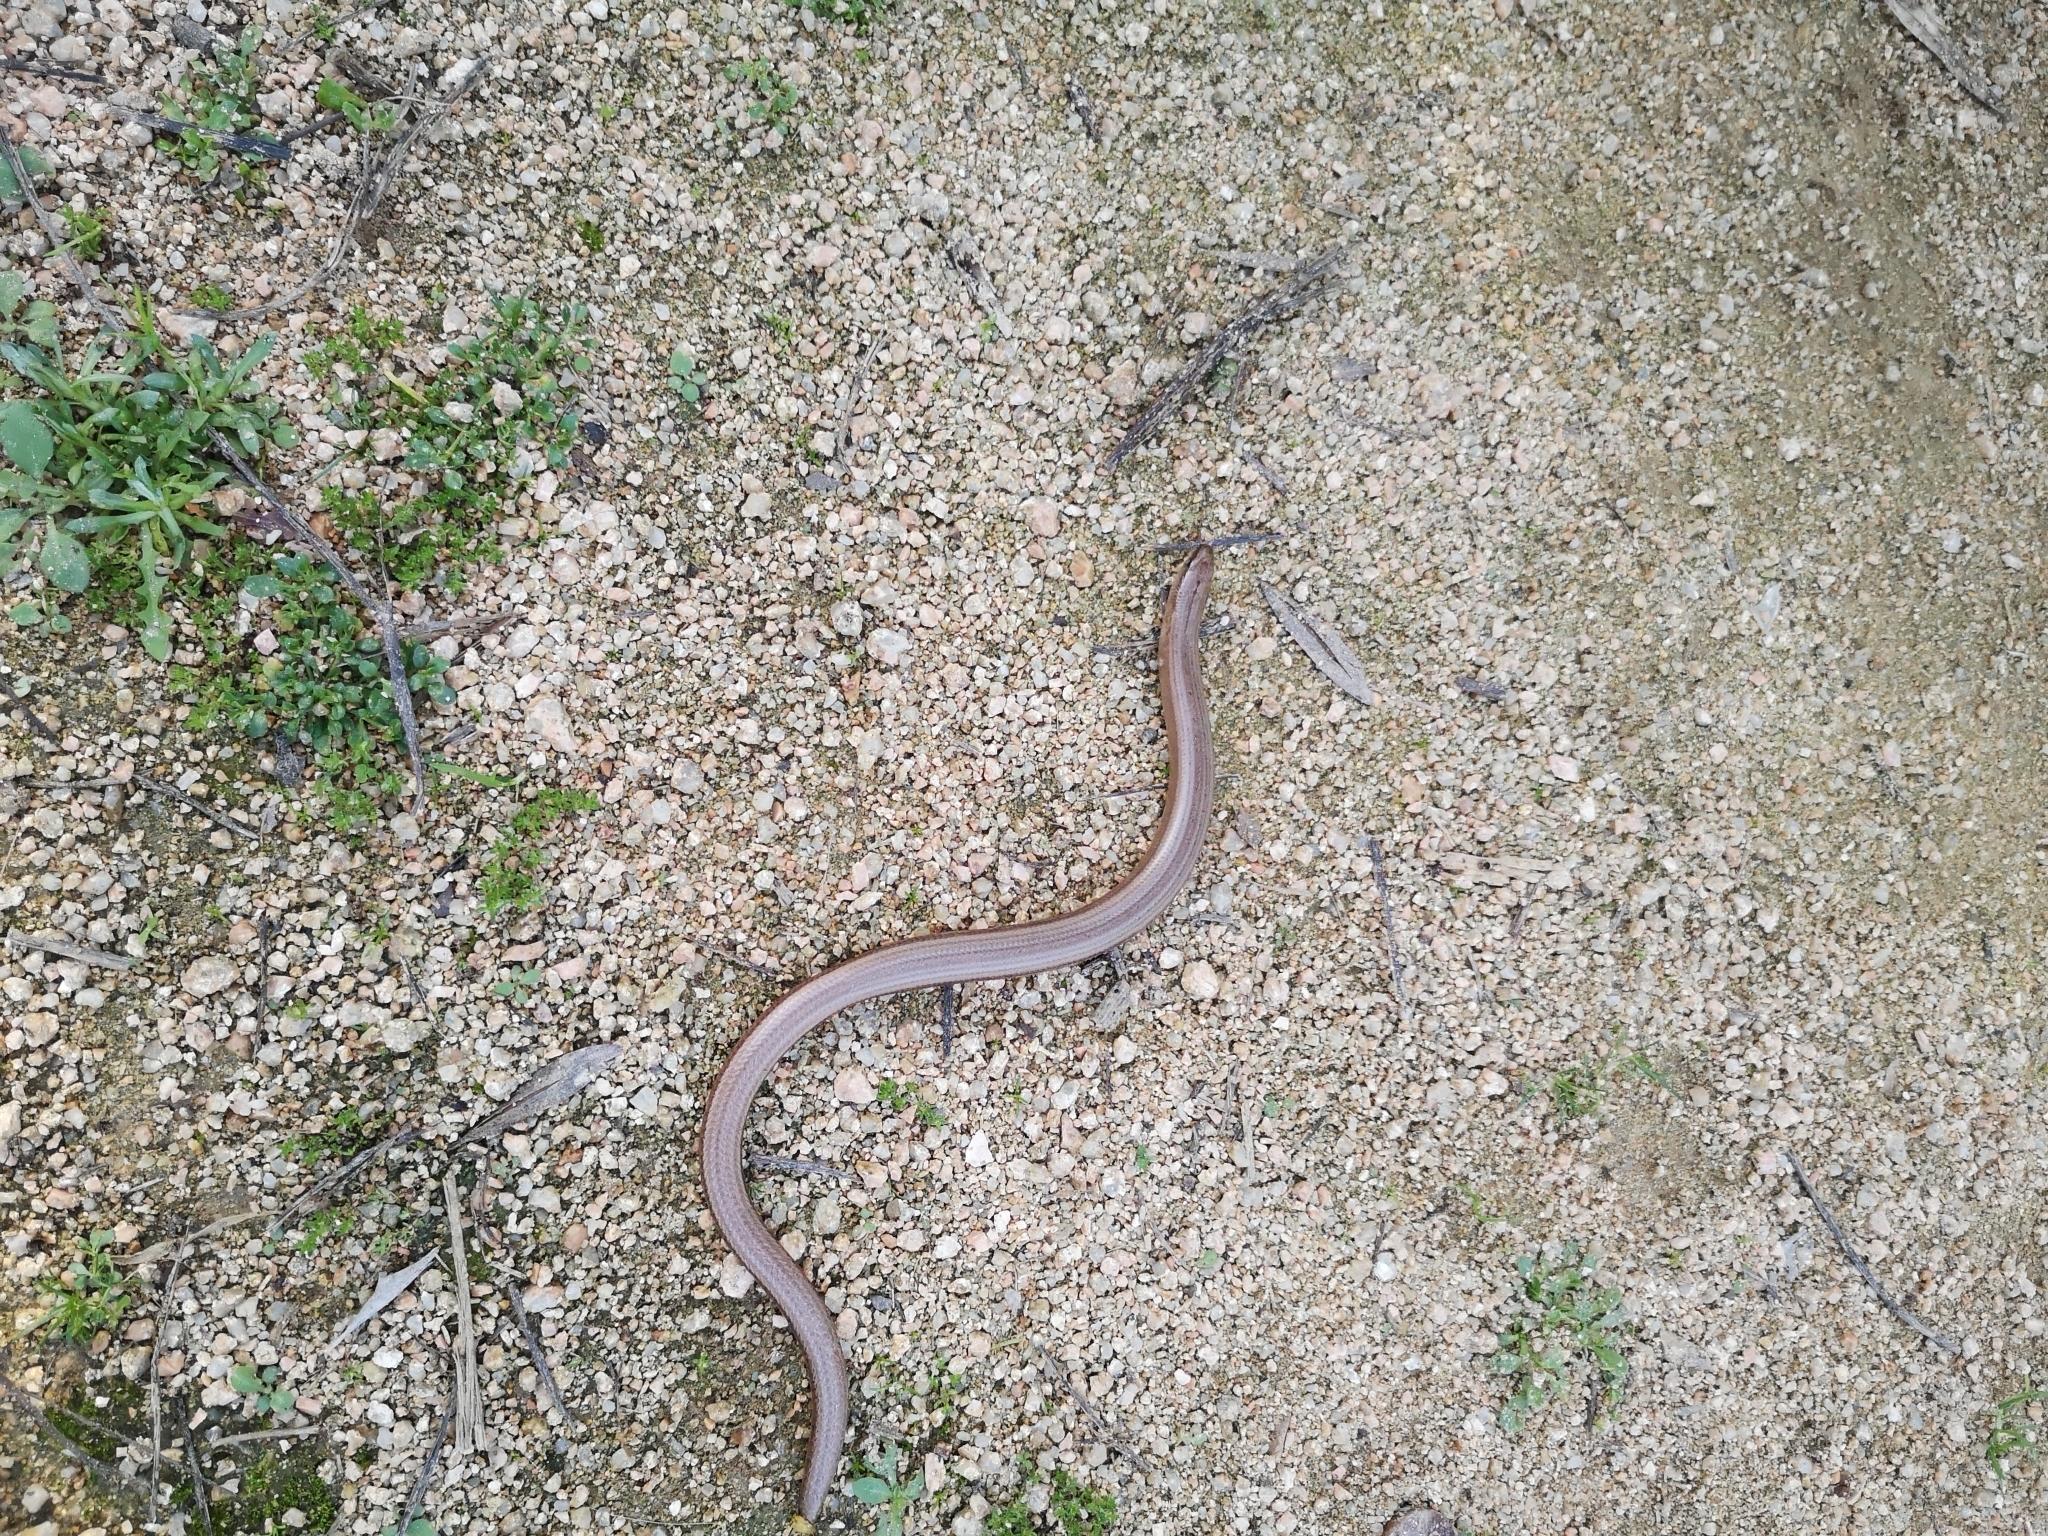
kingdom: Animalia
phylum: Chordata
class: Squamata
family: Anguidae
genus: Anguis
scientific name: Anguis fragilis
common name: Slow worm
